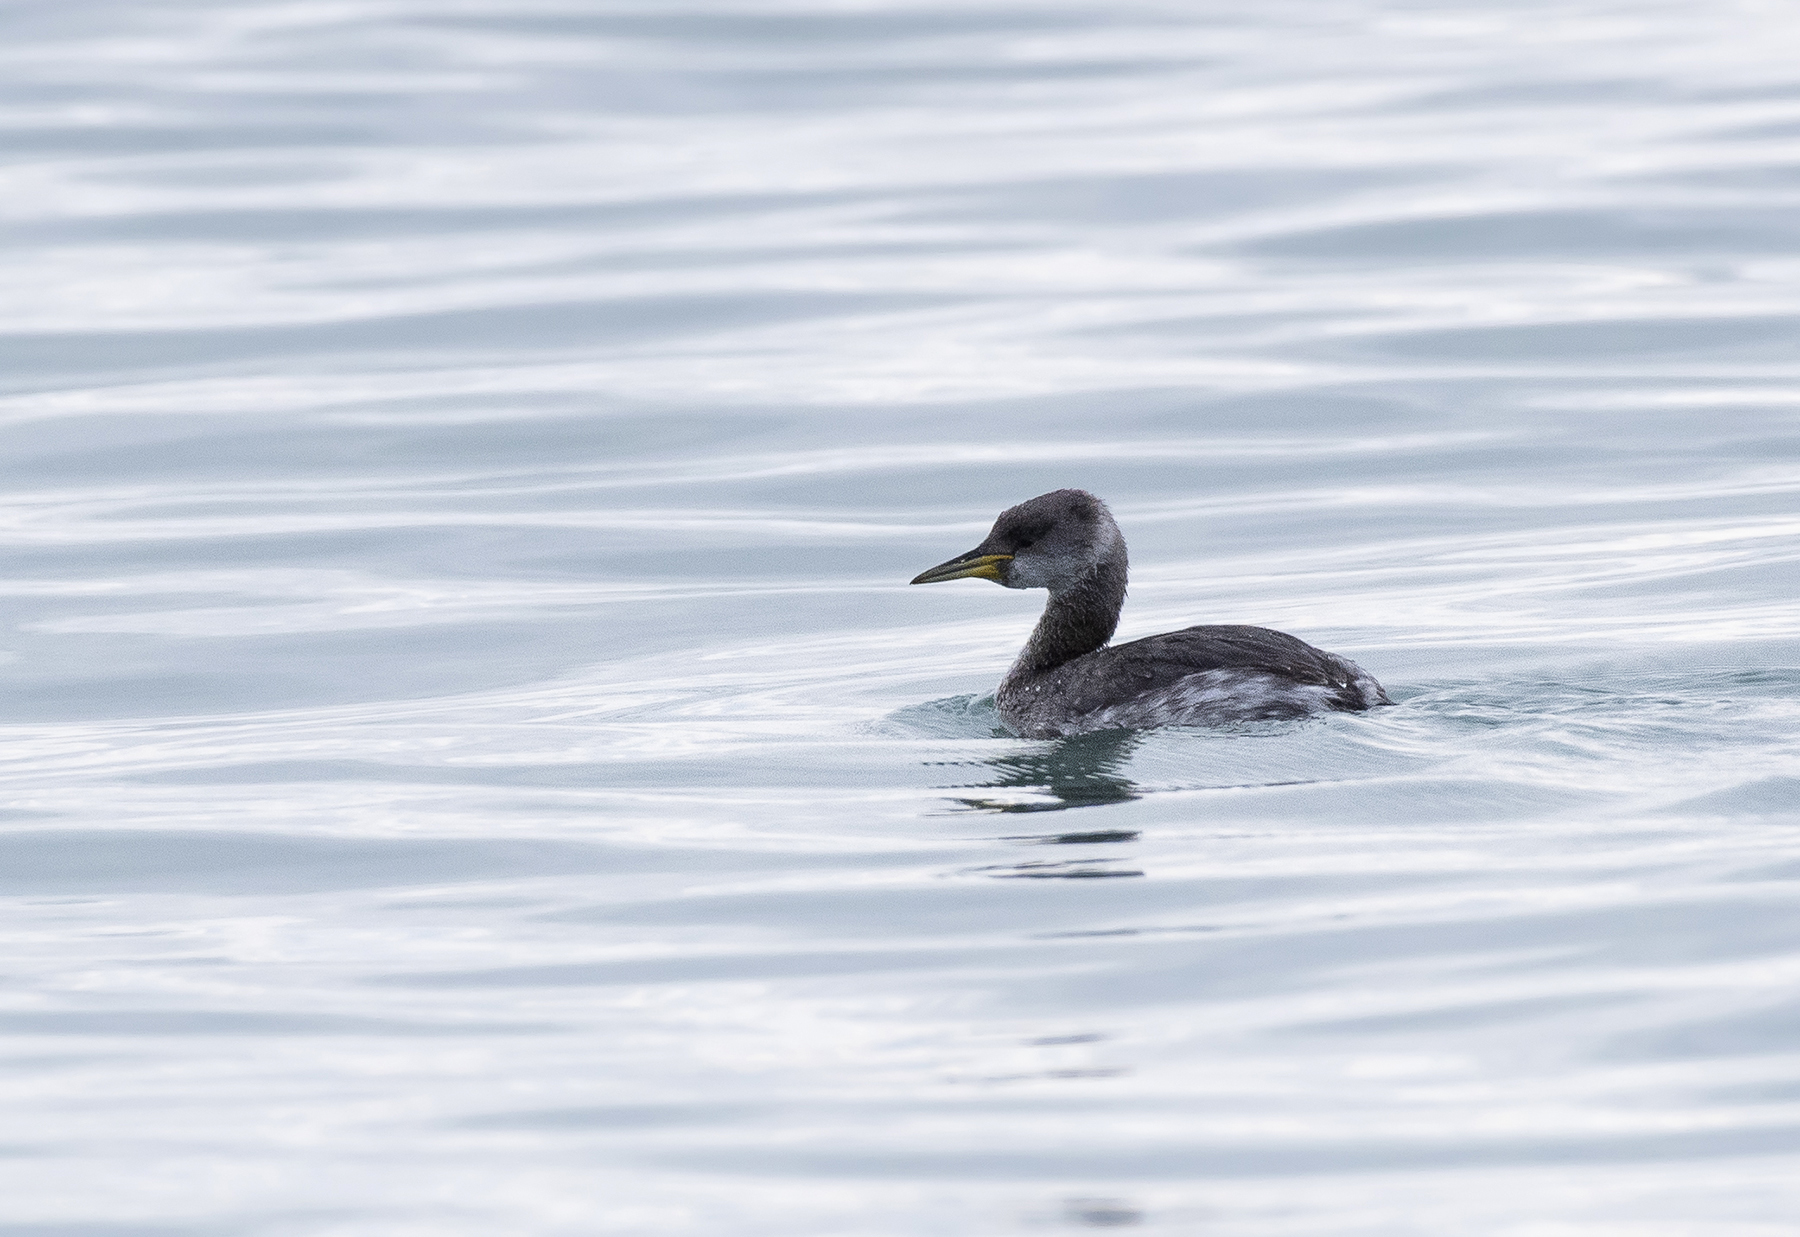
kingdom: Animalia
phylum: Chordata
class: Aves
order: Podicipediformes
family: Podicipedidae
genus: Podiceps
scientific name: Podiceps grisegena
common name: Red-necked grebe
